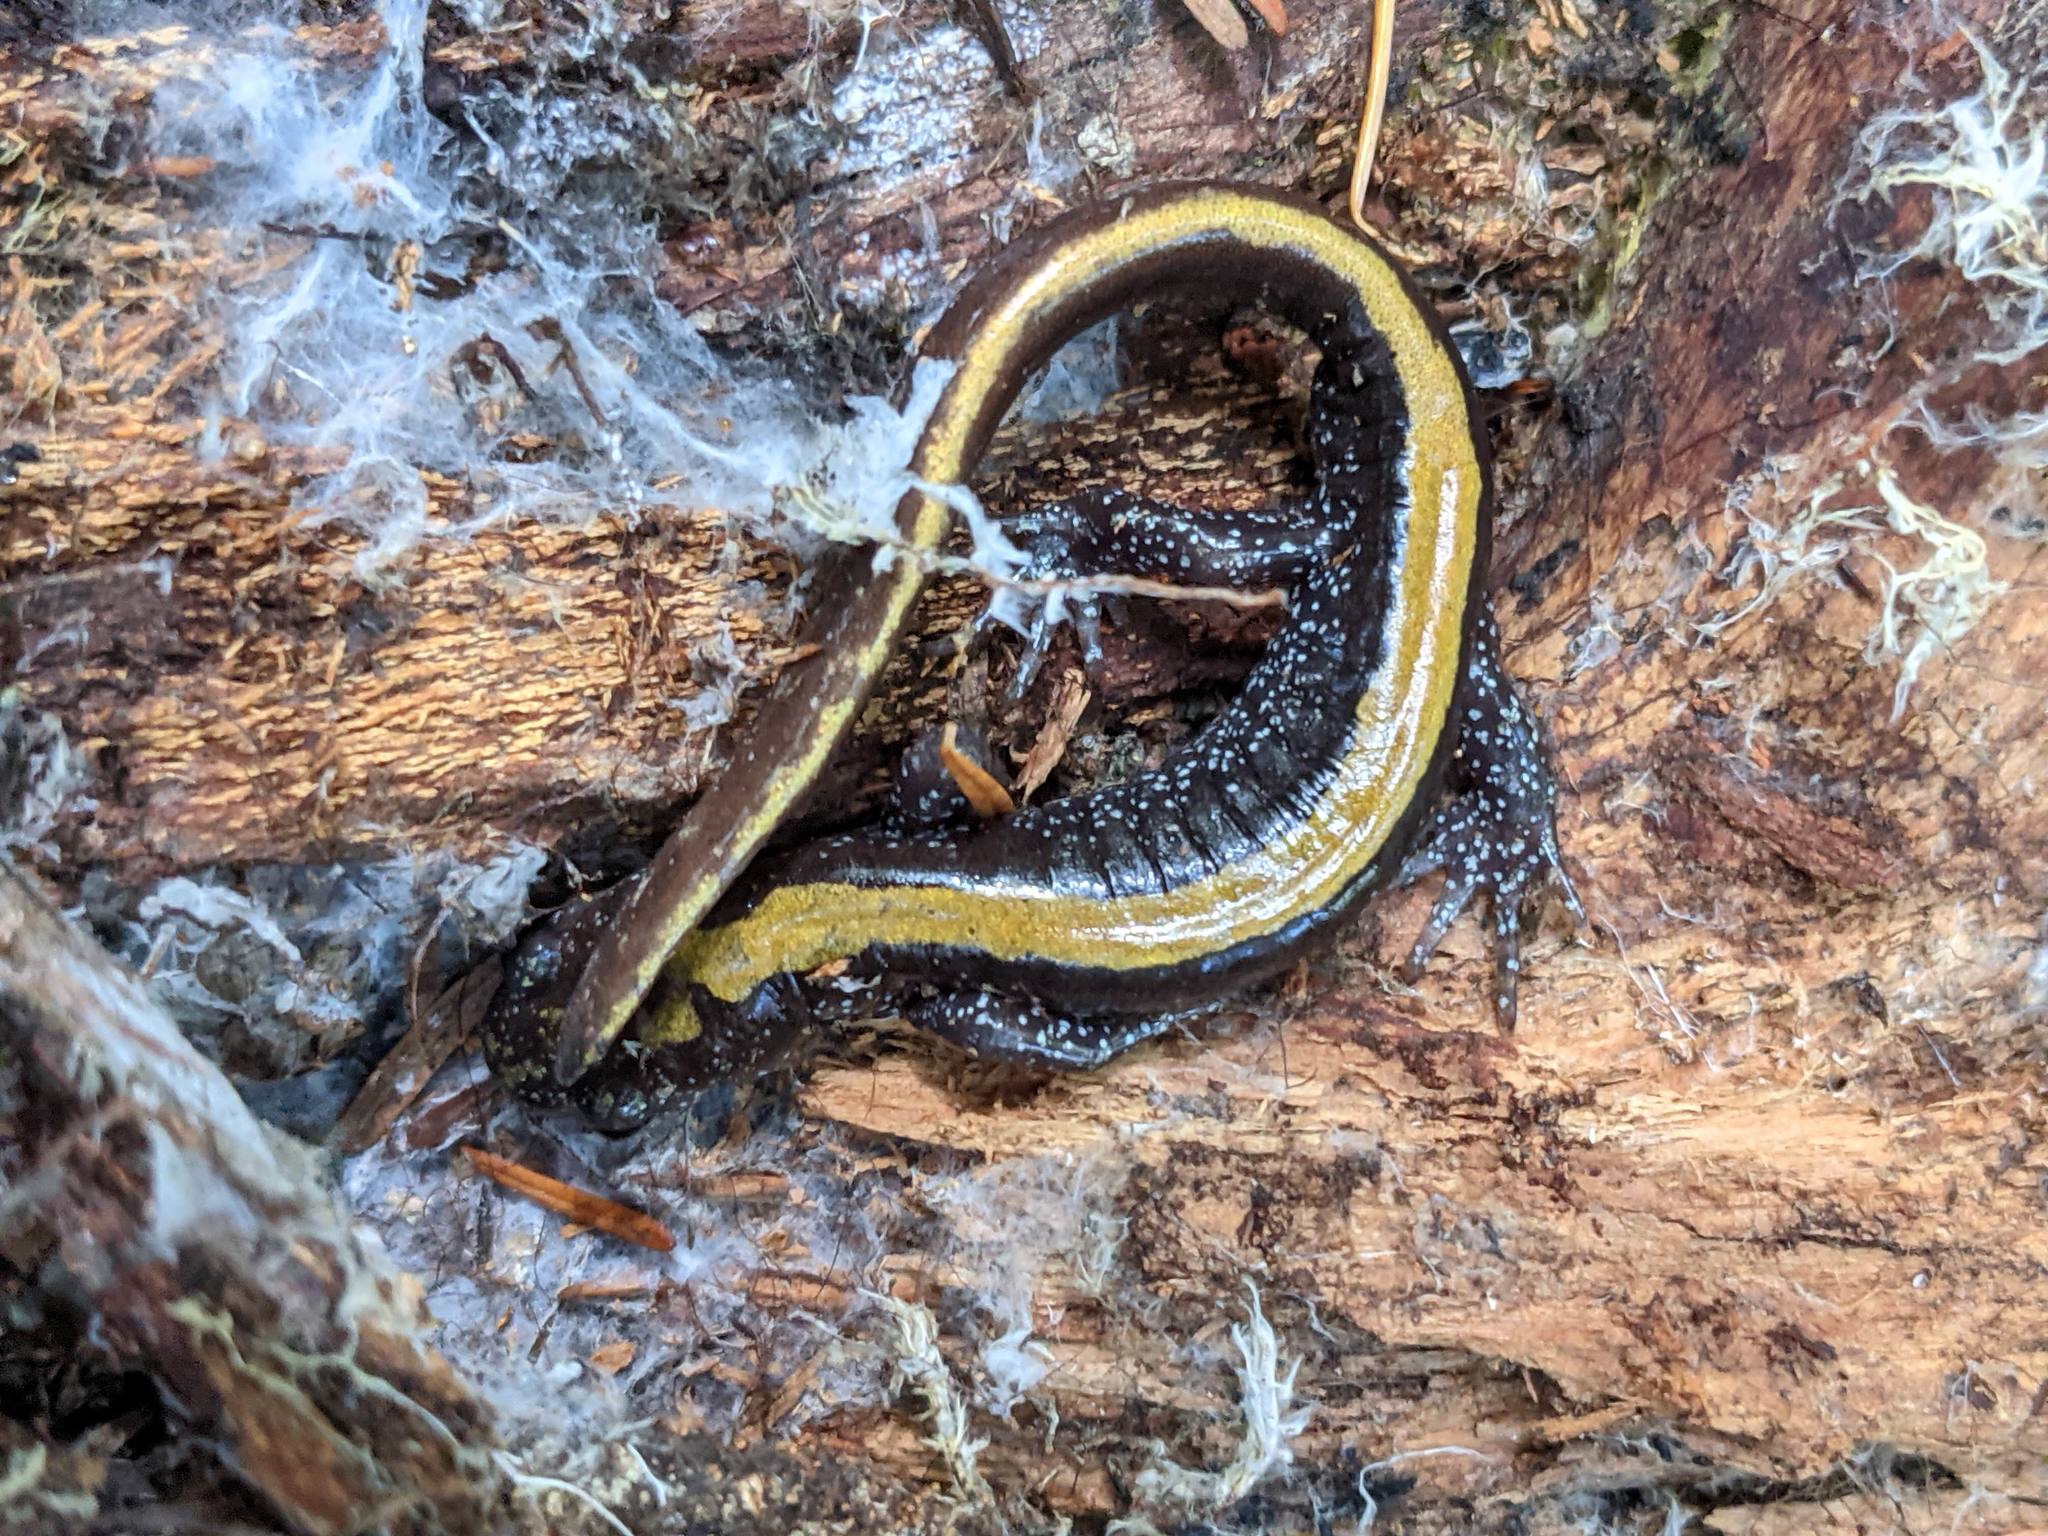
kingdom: Animalia
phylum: Chordata
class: Amphibia
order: Caudata
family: Ambystomatidae
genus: Ambystoma
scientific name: Ambystoma macrodactylum
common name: Long-toed salamander
